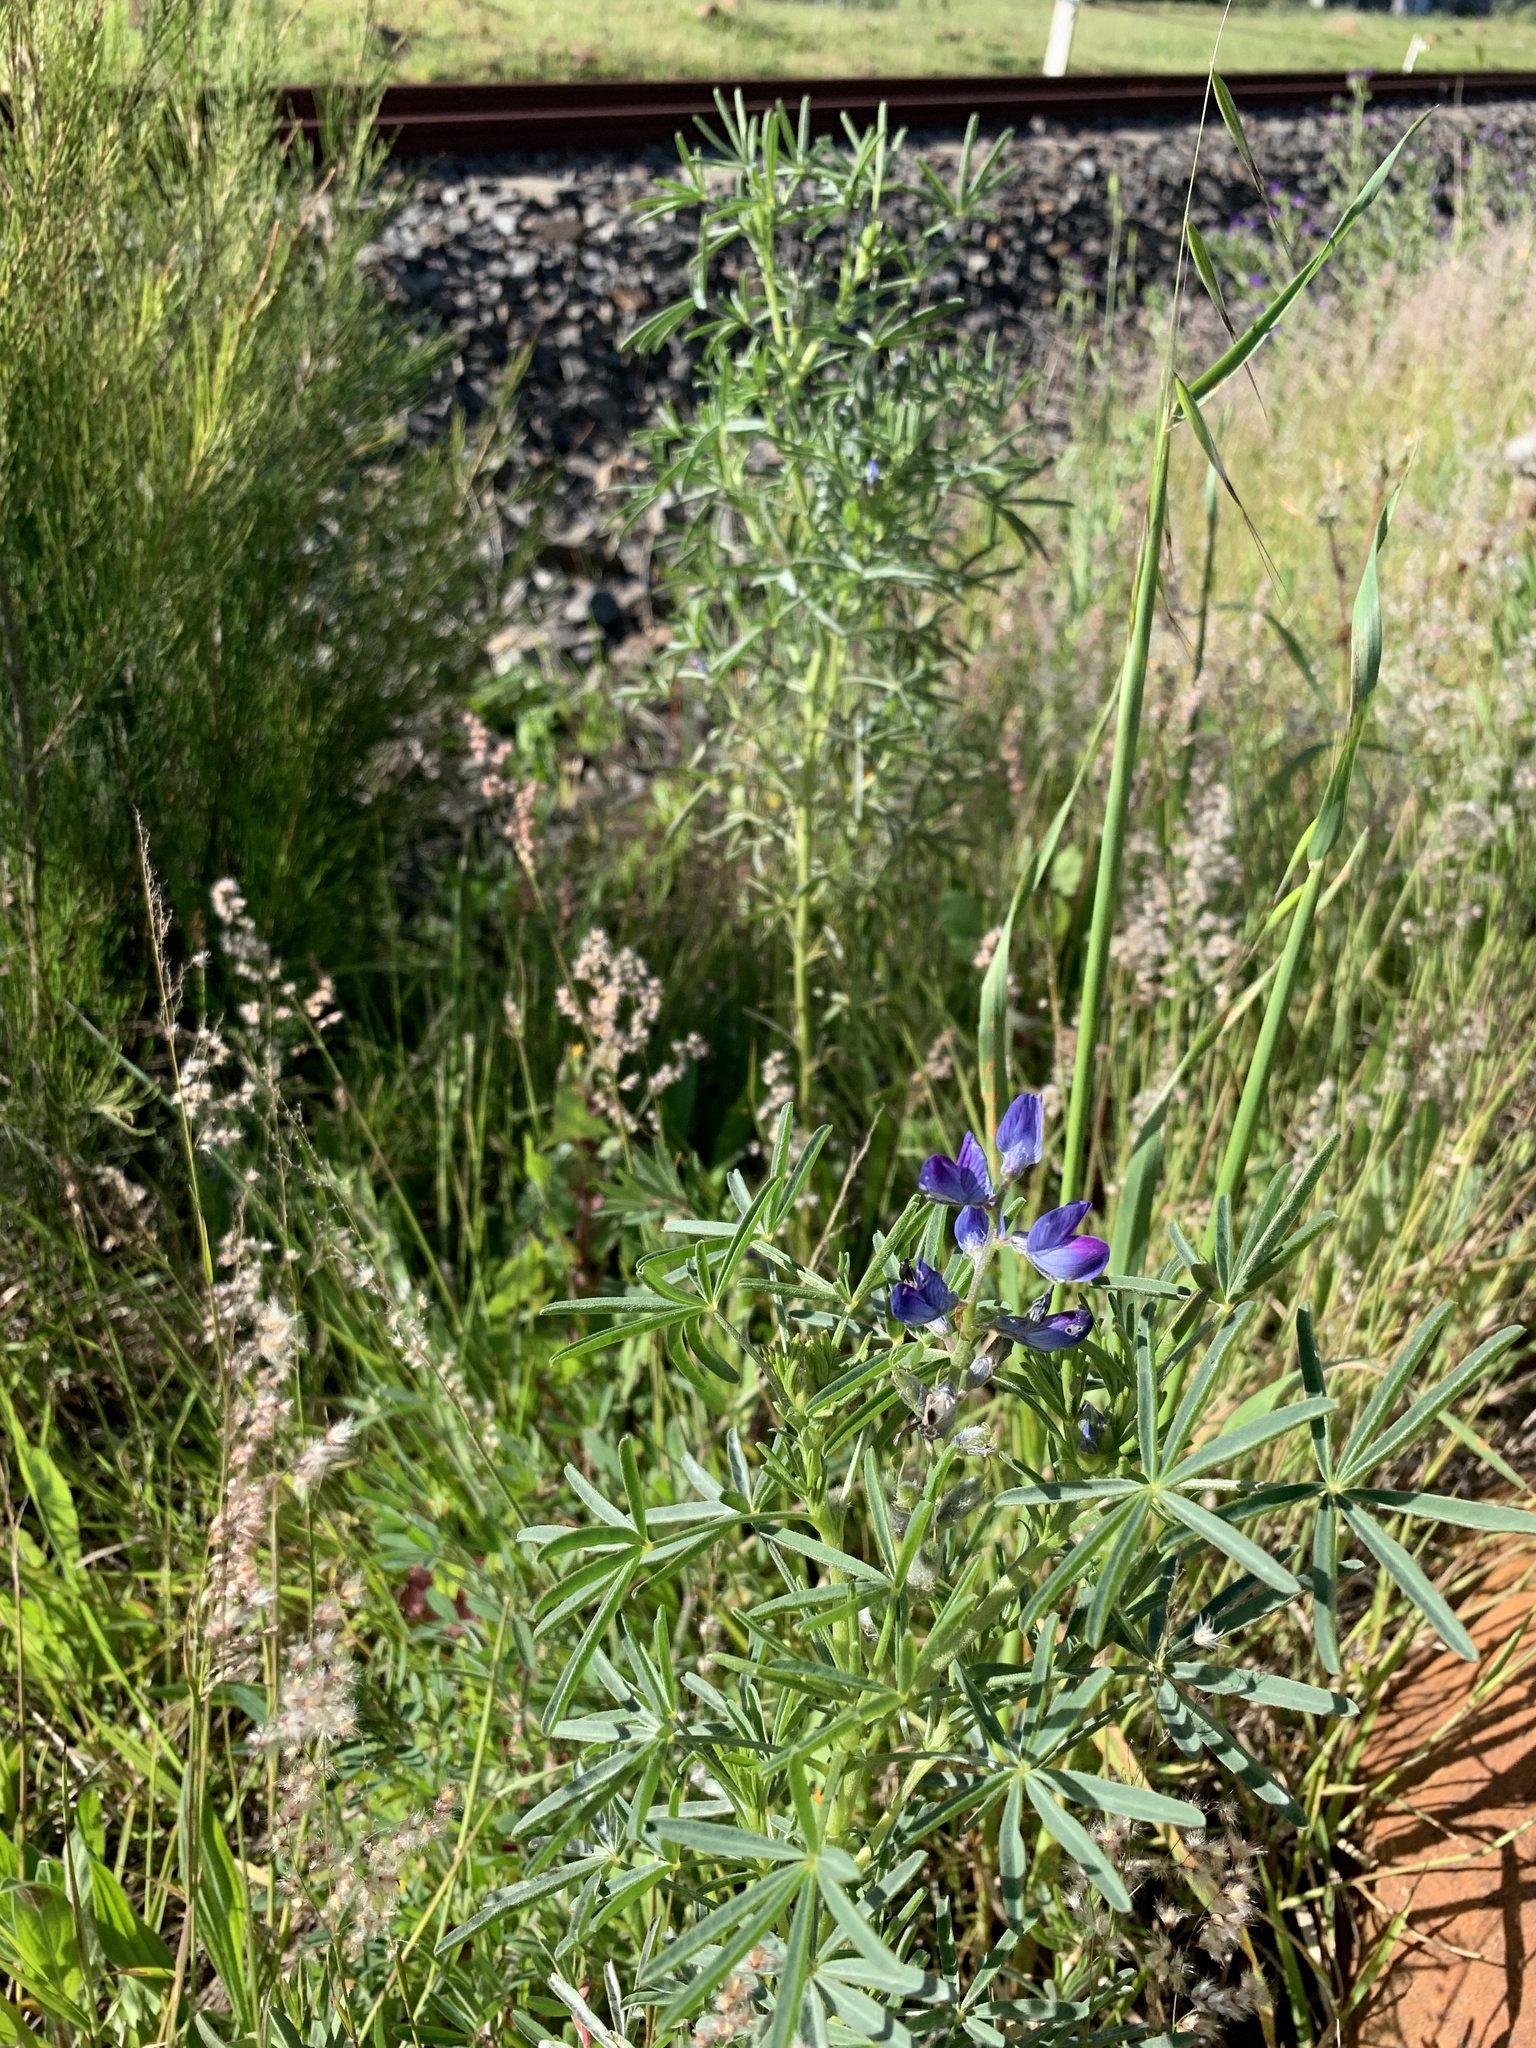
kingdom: Plantae
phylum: Tracheophyta
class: Magnoliopsida
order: Fabales
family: Fabaceae
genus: Lupinus
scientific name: Lupinus angustifolius
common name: Narrow-leaved lupin
